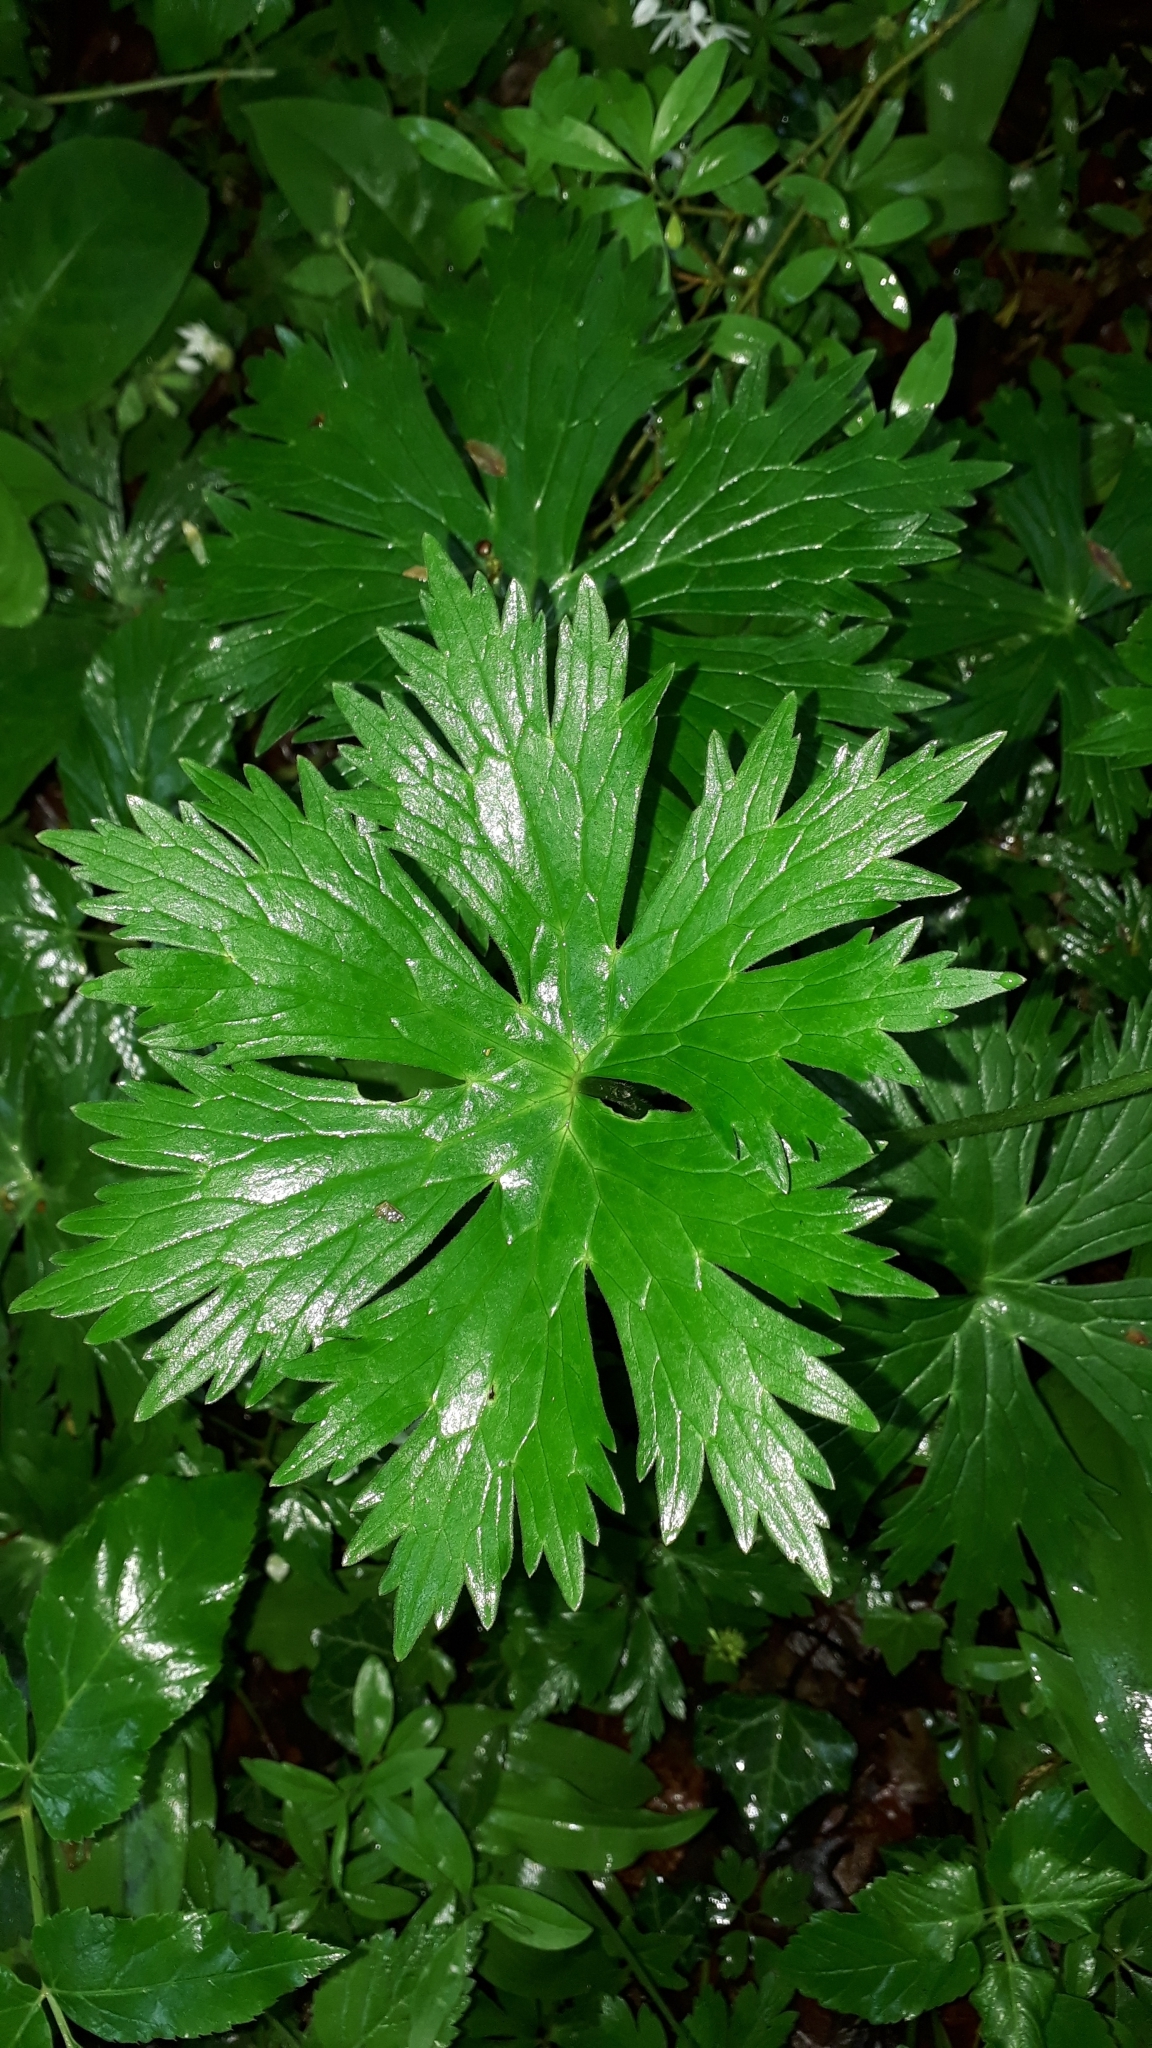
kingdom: Plantae
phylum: Tracheophyta
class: Magnoliopsida
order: Ranunculales
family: Ranunculaceae
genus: Aconitum
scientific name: Aconitum lycoctonum
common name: Wolf's-bane
